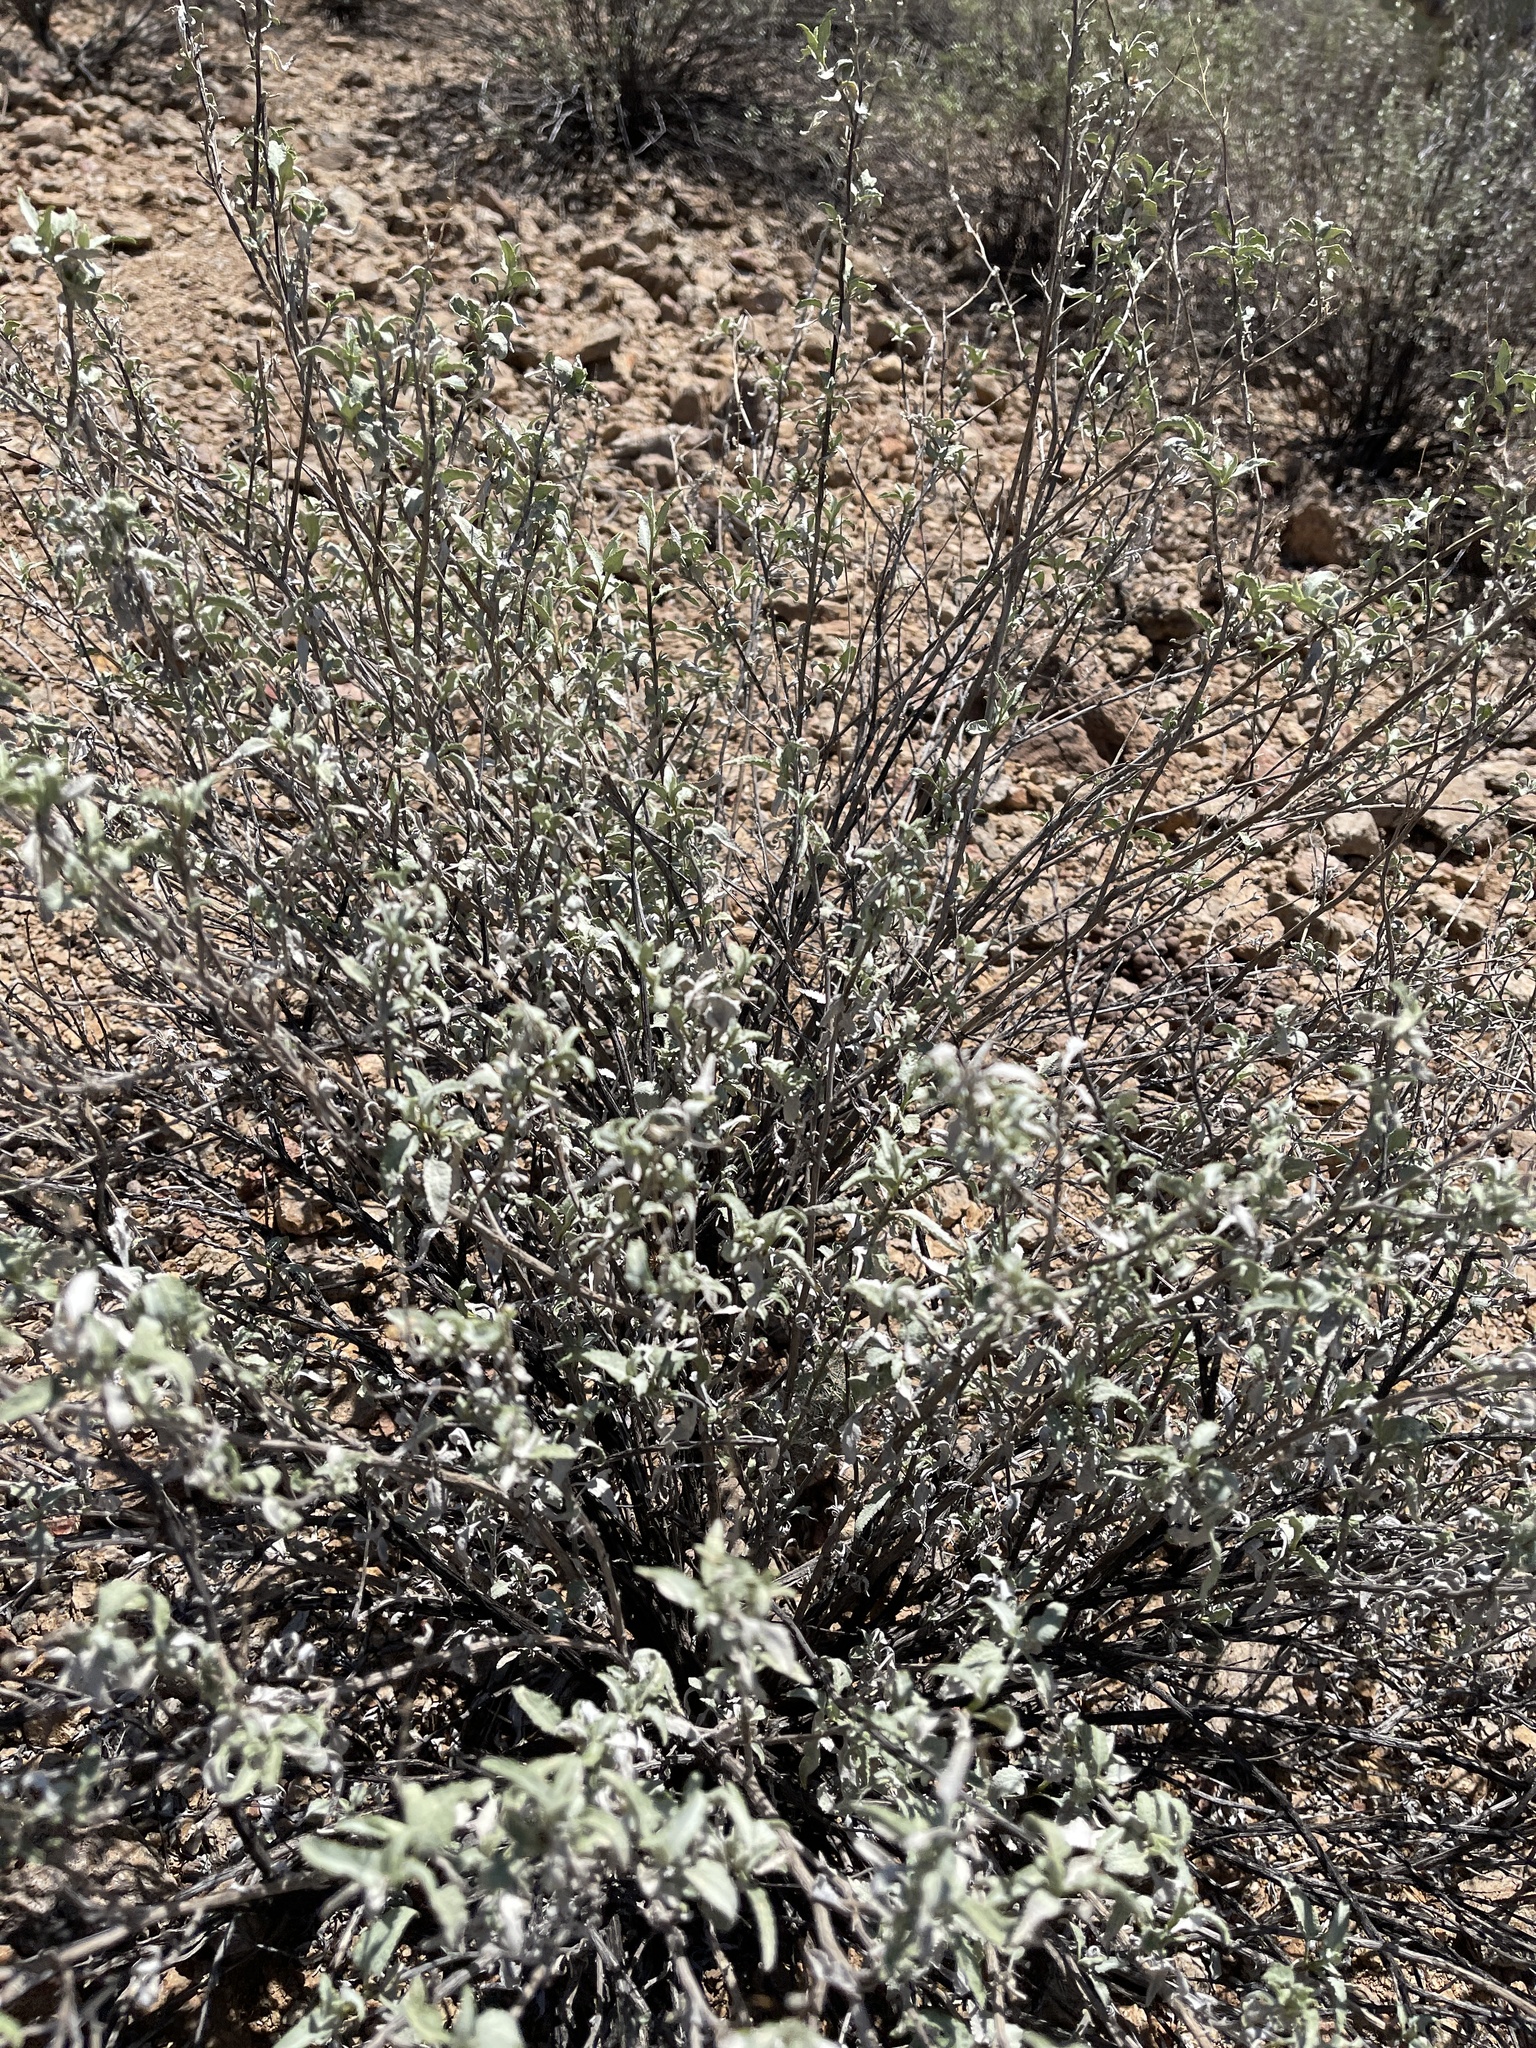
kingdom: Plantae
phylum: Tracheophyta
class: Magnoliopsida
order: Asterales
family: Asteraceae
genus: Ambrosia
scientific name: Ambrosia deltoidea
